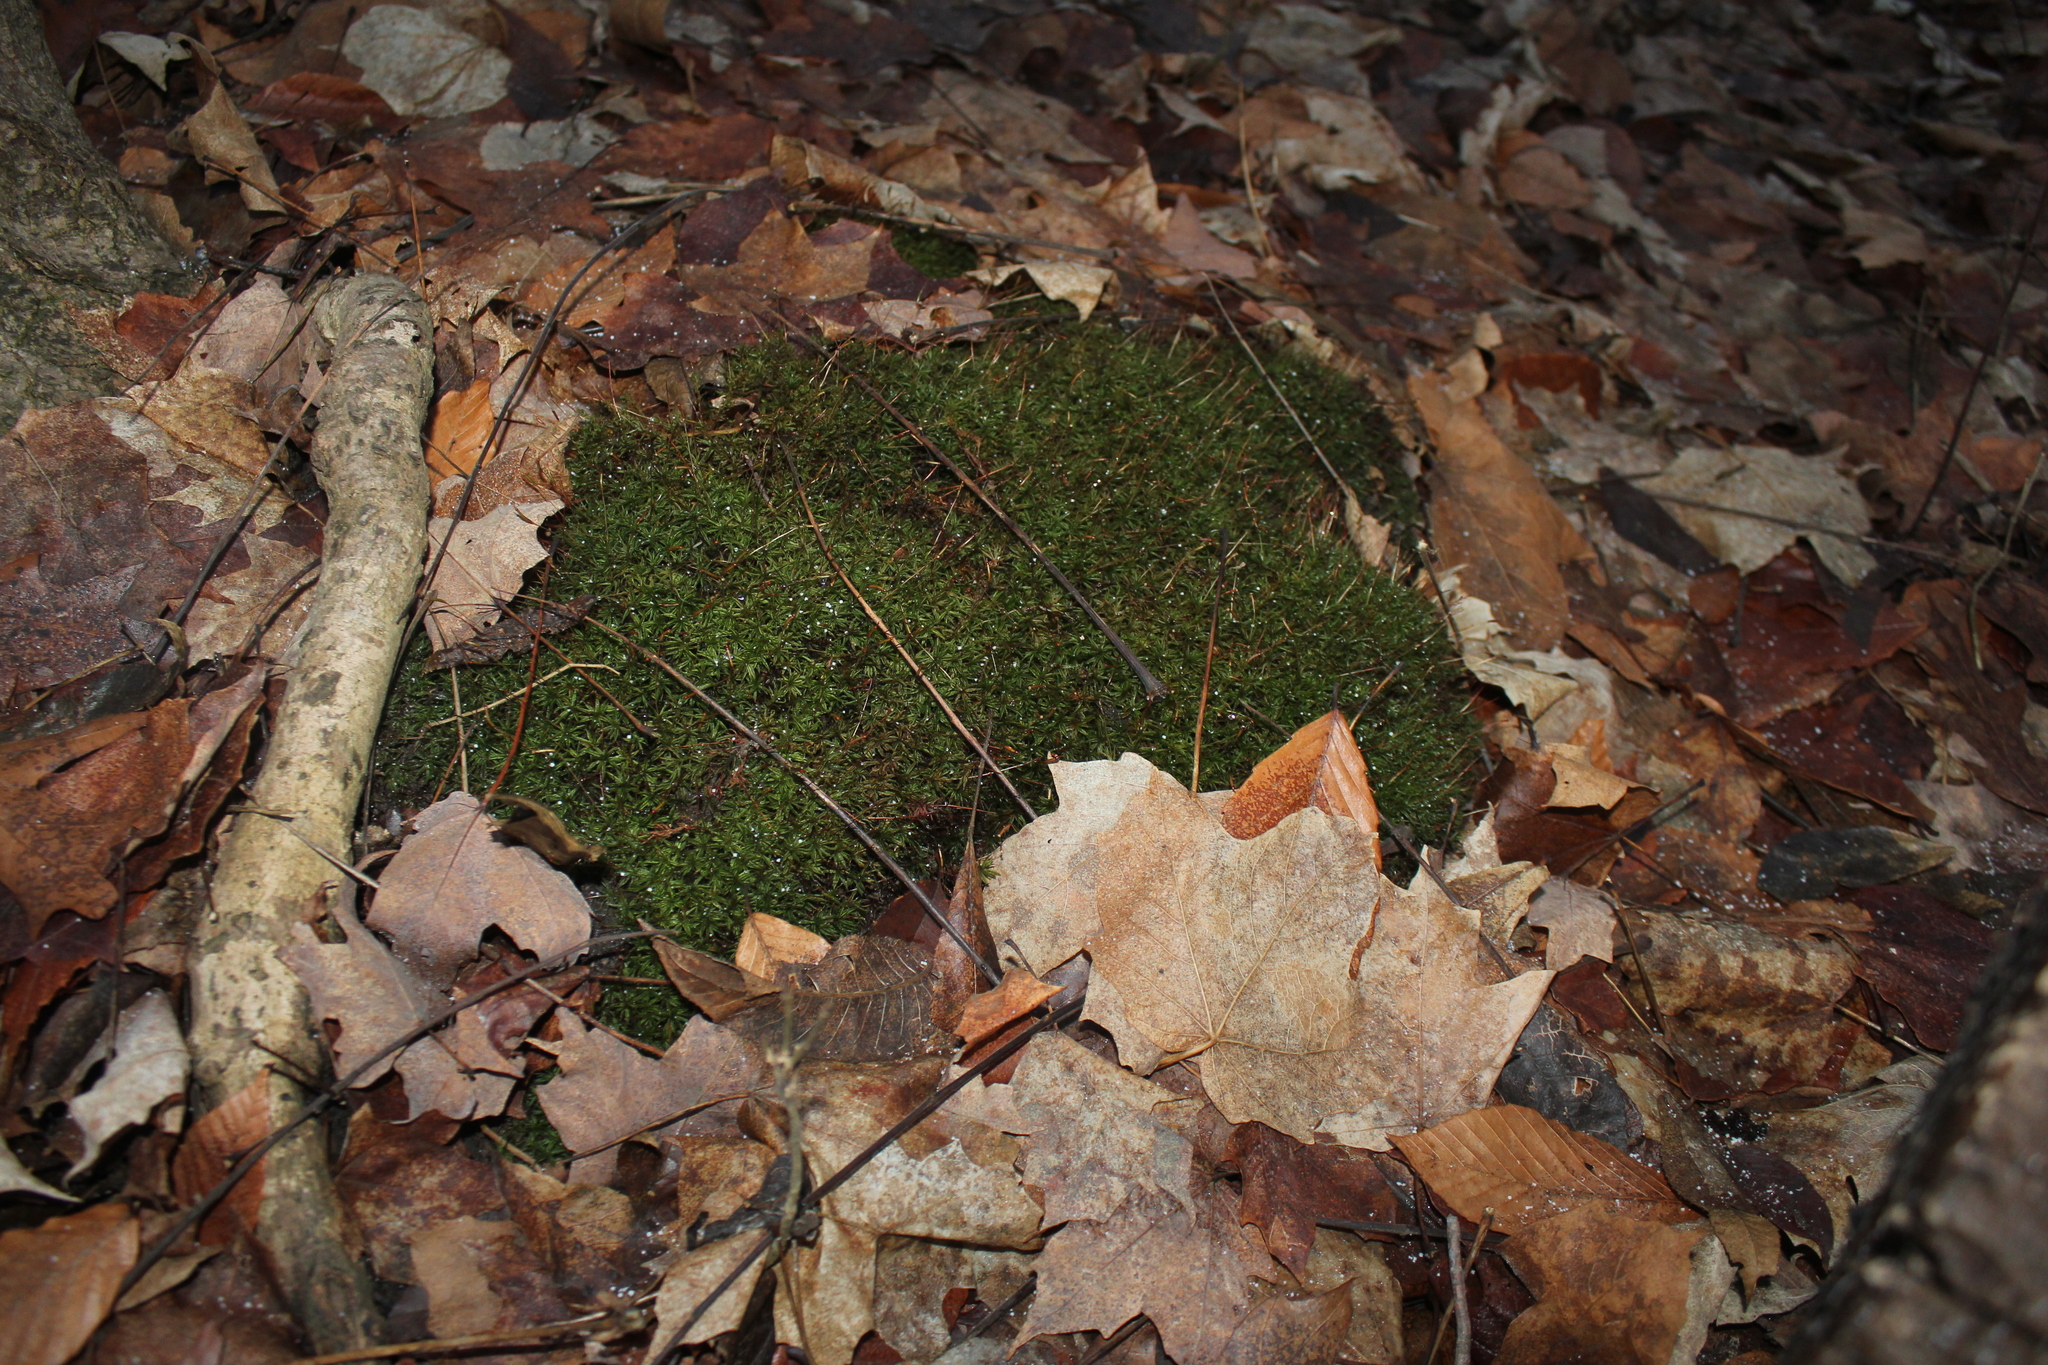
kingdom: Plantae
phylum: Bryophyta
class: Polytrichopsida
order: Polytrichales
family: Polytrichaceae
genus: Atrichum
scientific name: Atrichum angustatum
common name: Lesser smoothcap
